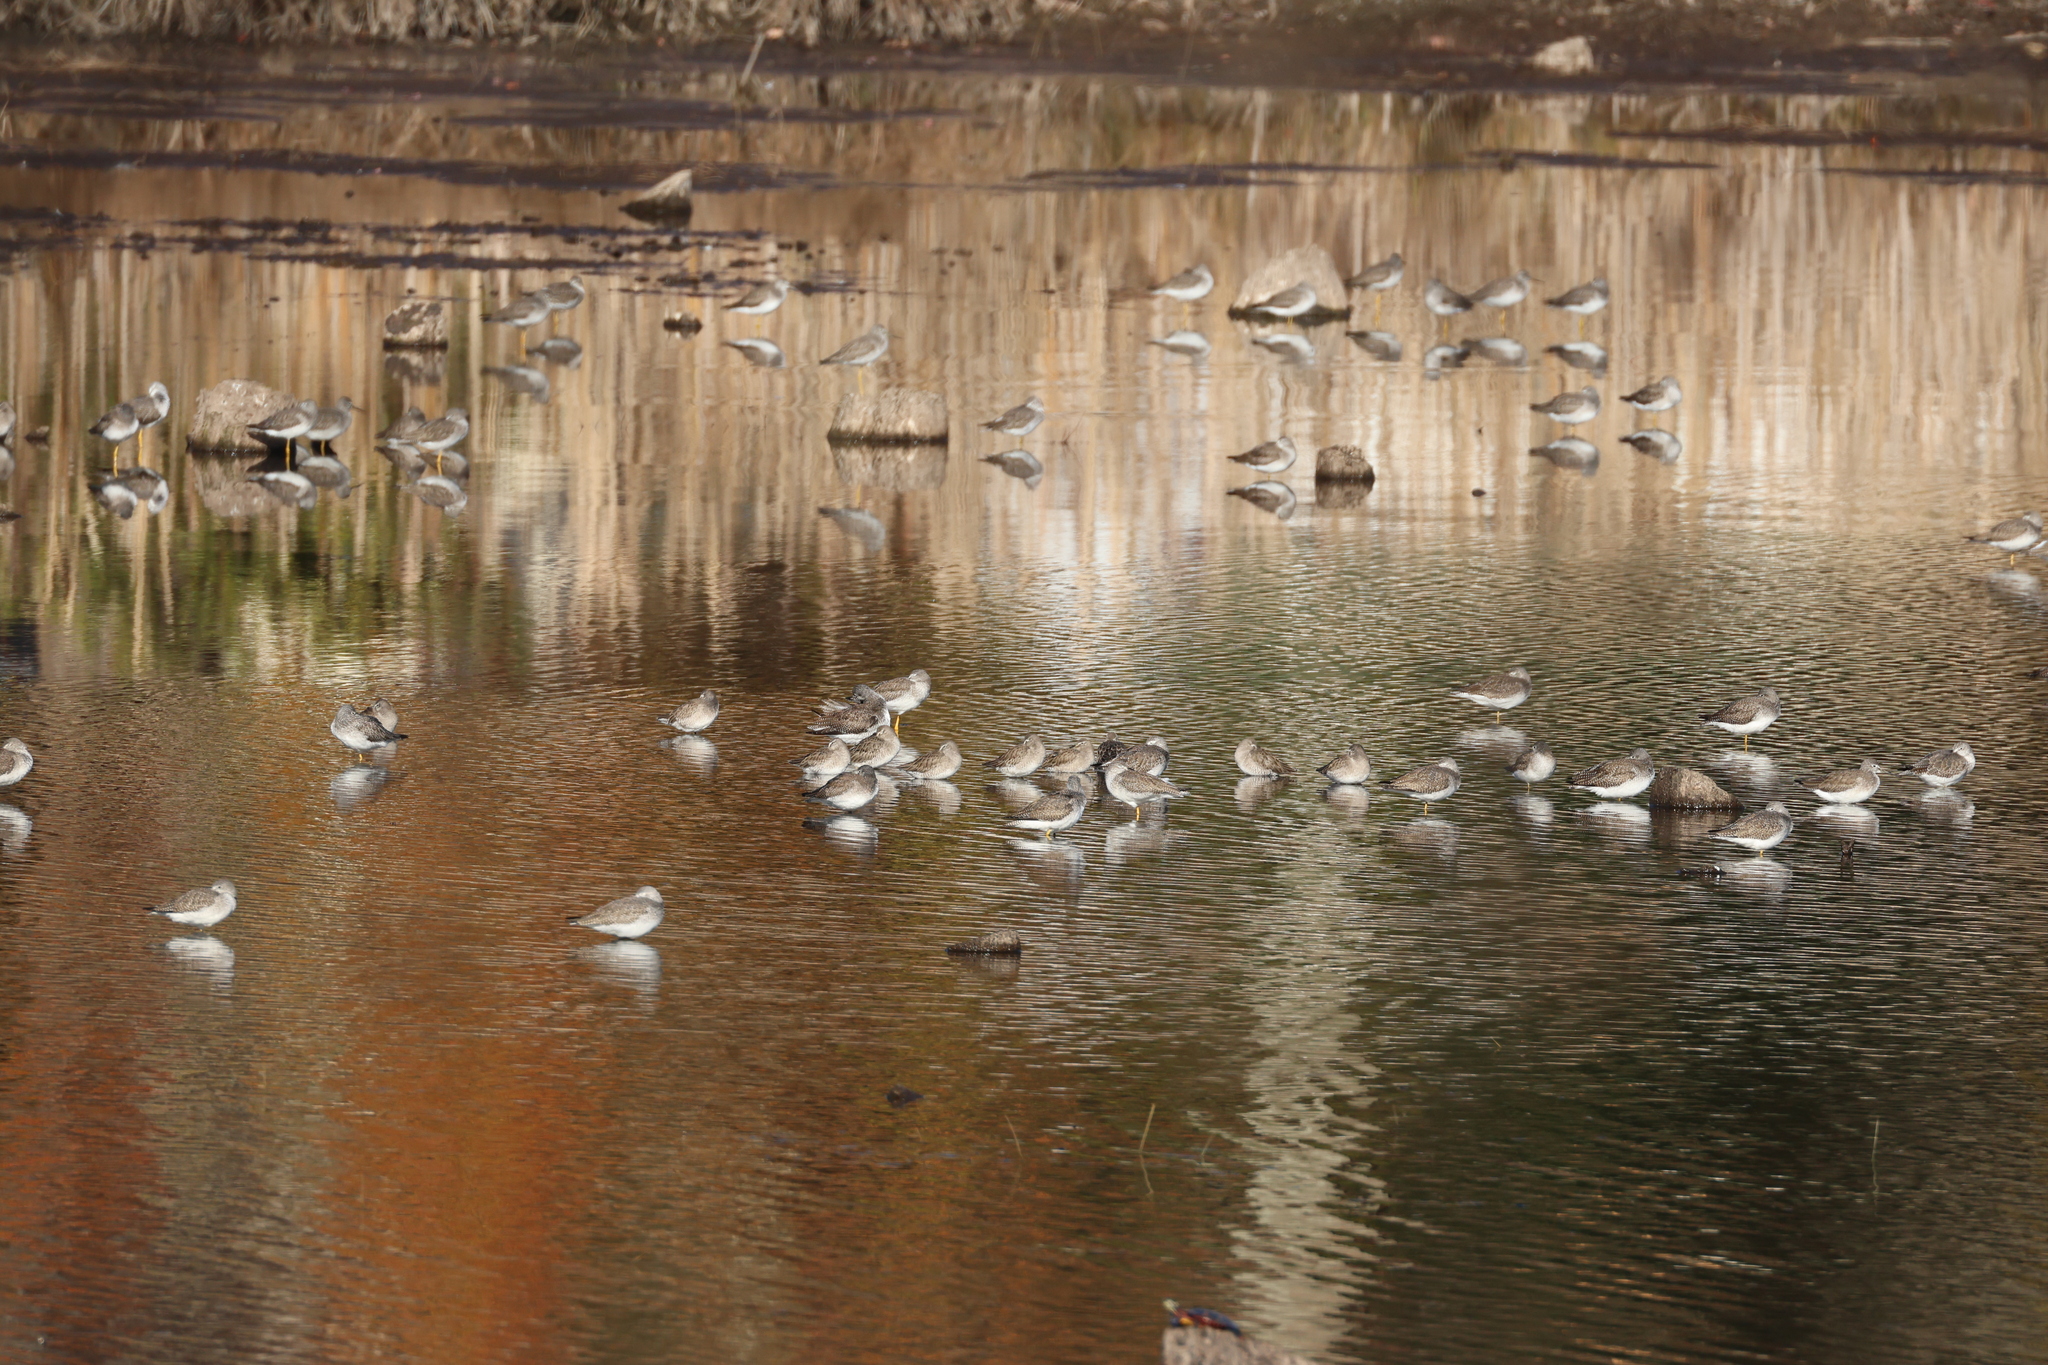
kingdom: Animalia
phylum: Chordata
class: Aves
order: Charadriiformes
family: Scolopacidae
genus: Tringa
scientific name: Tringa melanoleuca
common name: Greater yellowlegs
